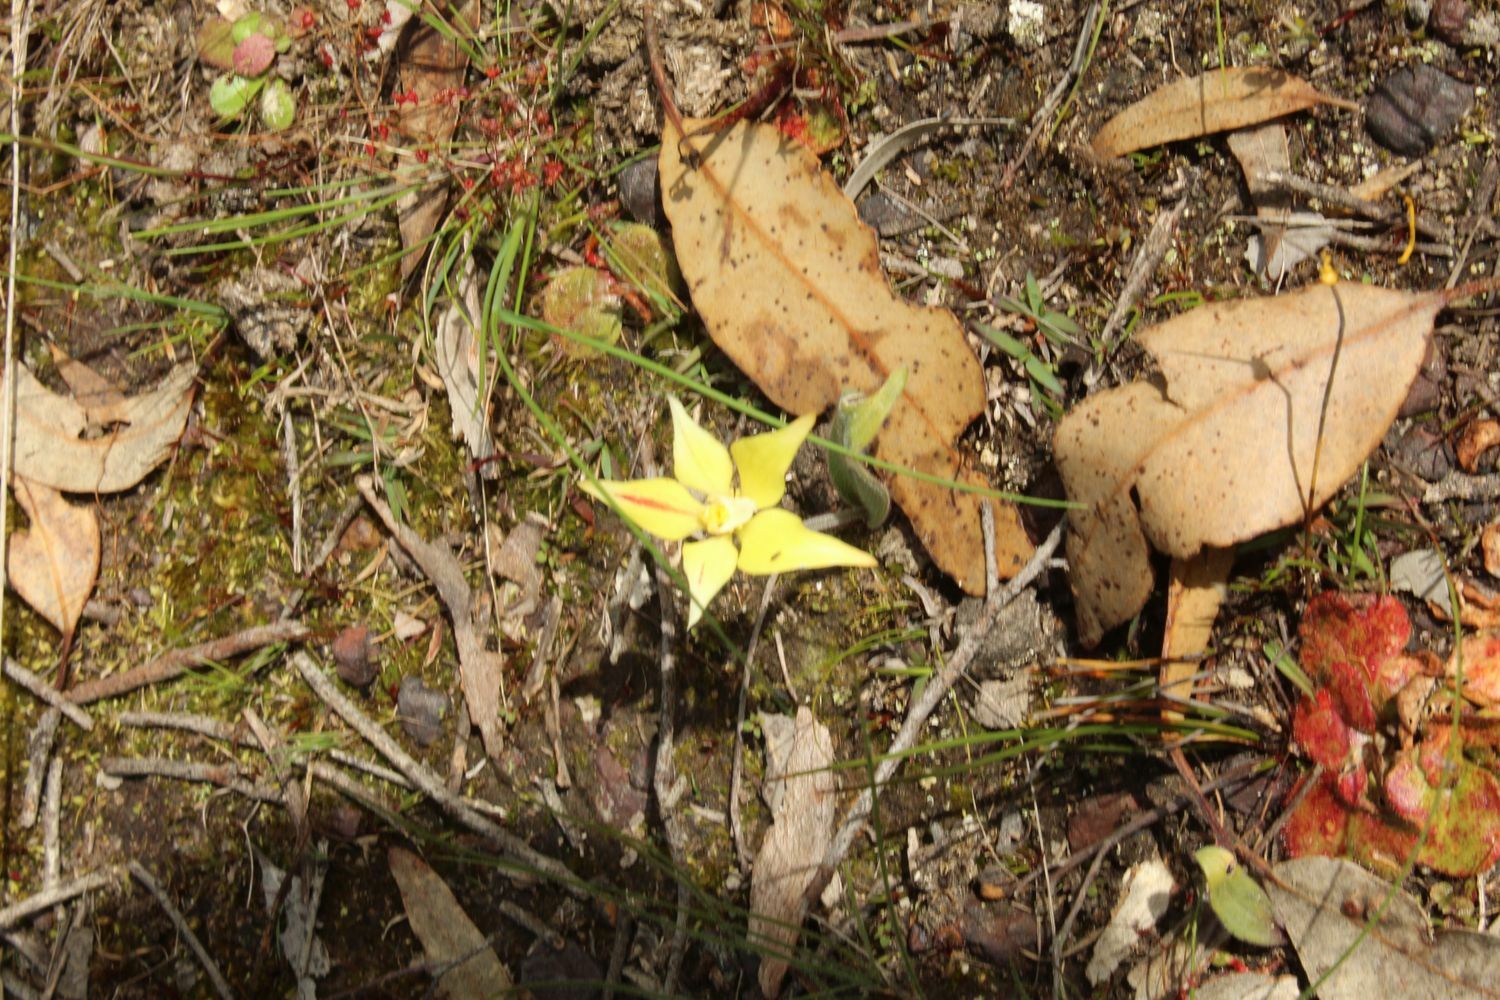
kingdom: Plantae
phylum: Tracheophyta
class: Liliopsida
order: Asparagales
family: Orchidaceae
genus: Caladenia
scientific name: Caladenia flava
